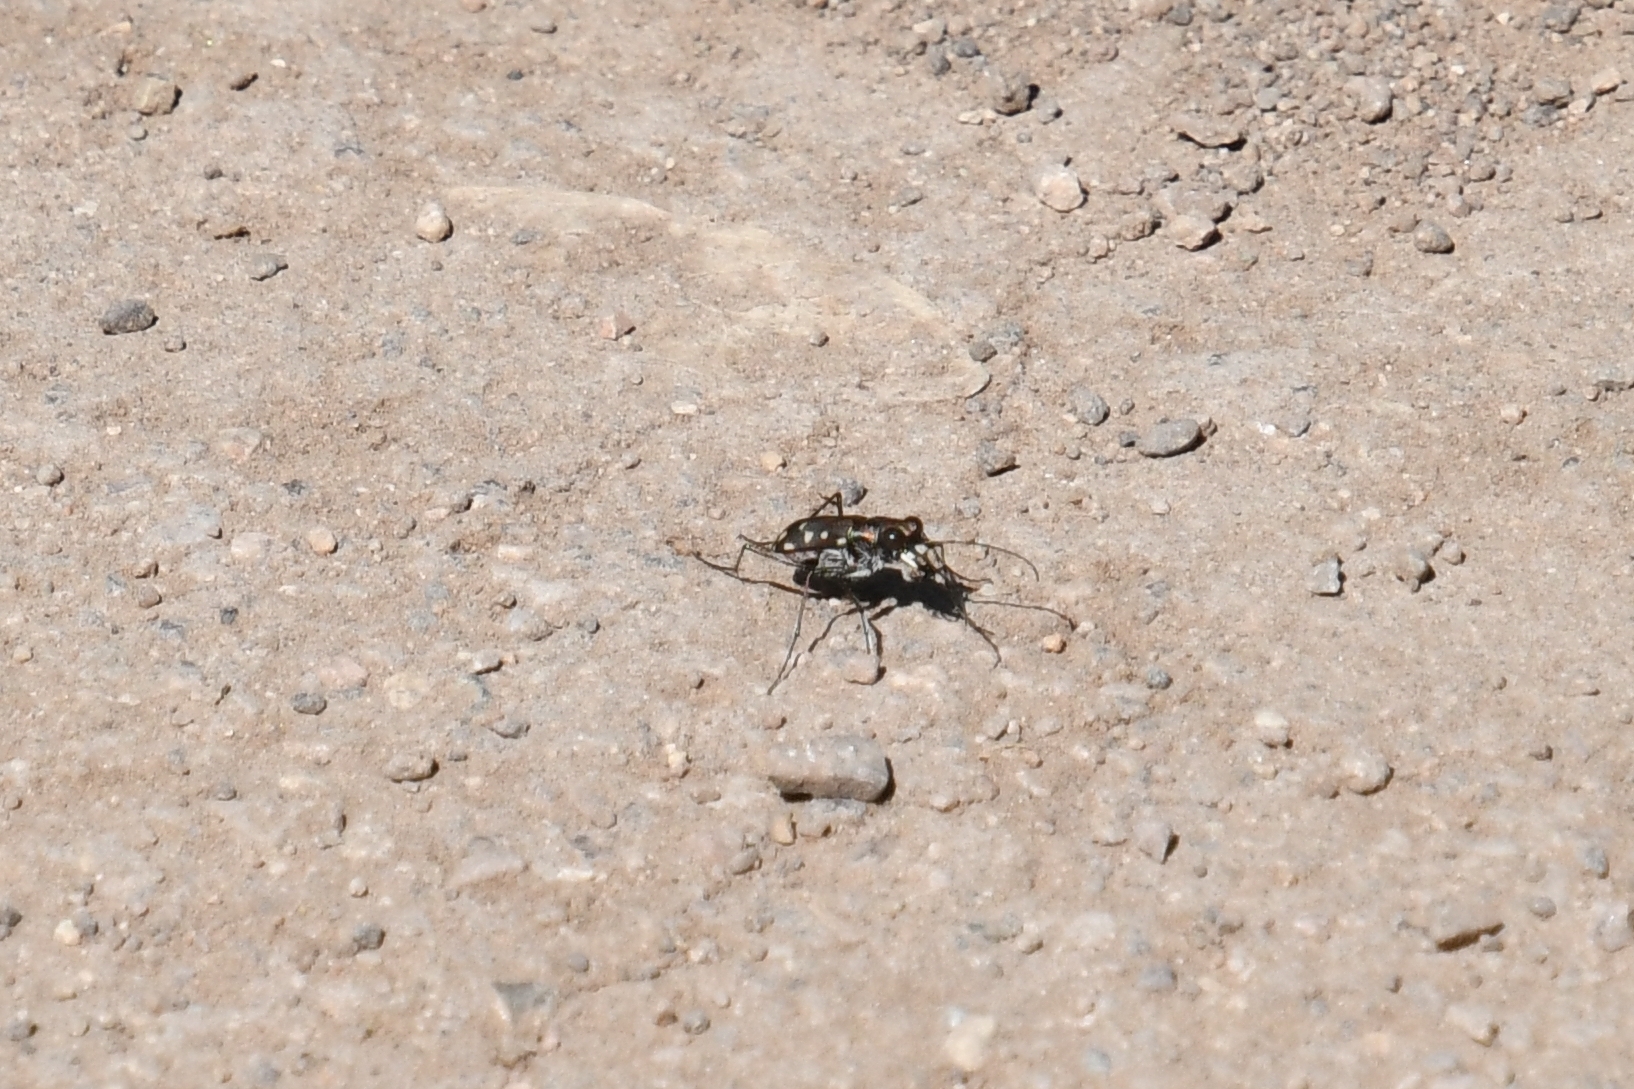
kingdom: Animalia
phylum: Arthropoda
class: Insecta
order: Coleoptera
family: Carabidae
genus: Cicindela
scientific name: Cicindela sedecimpunctata
